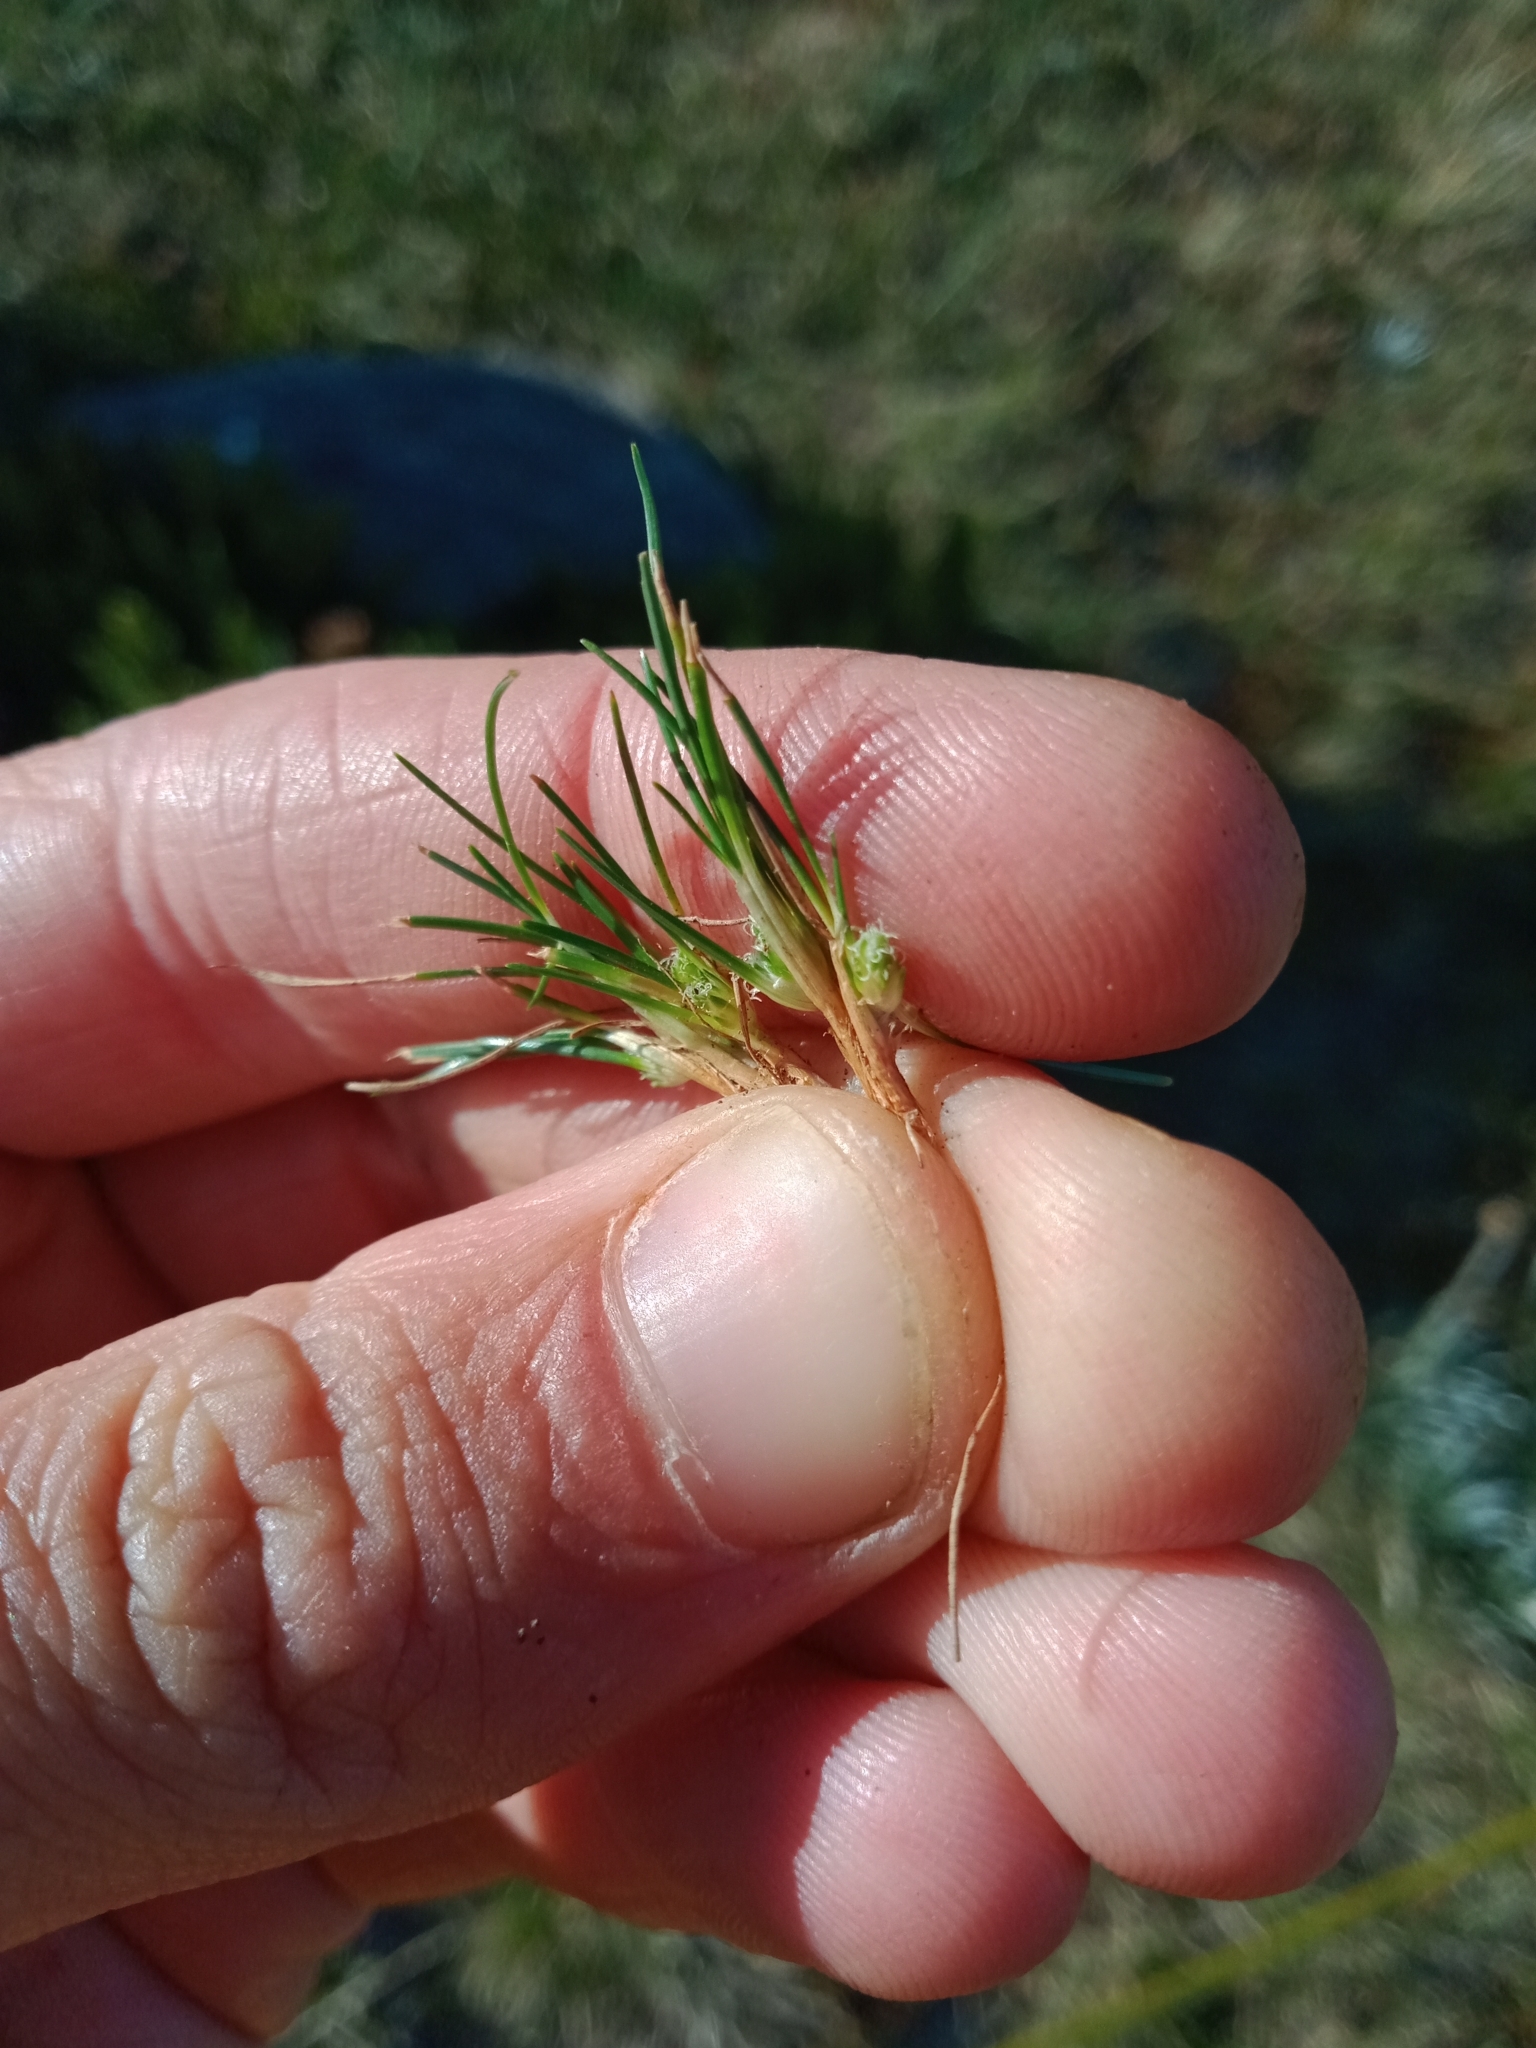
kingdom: Plantae
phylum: Tracheophyta
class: Liliopsida
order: Poales
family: Cyperaceae
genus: Isolepis
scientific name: Isolepis montivaga
